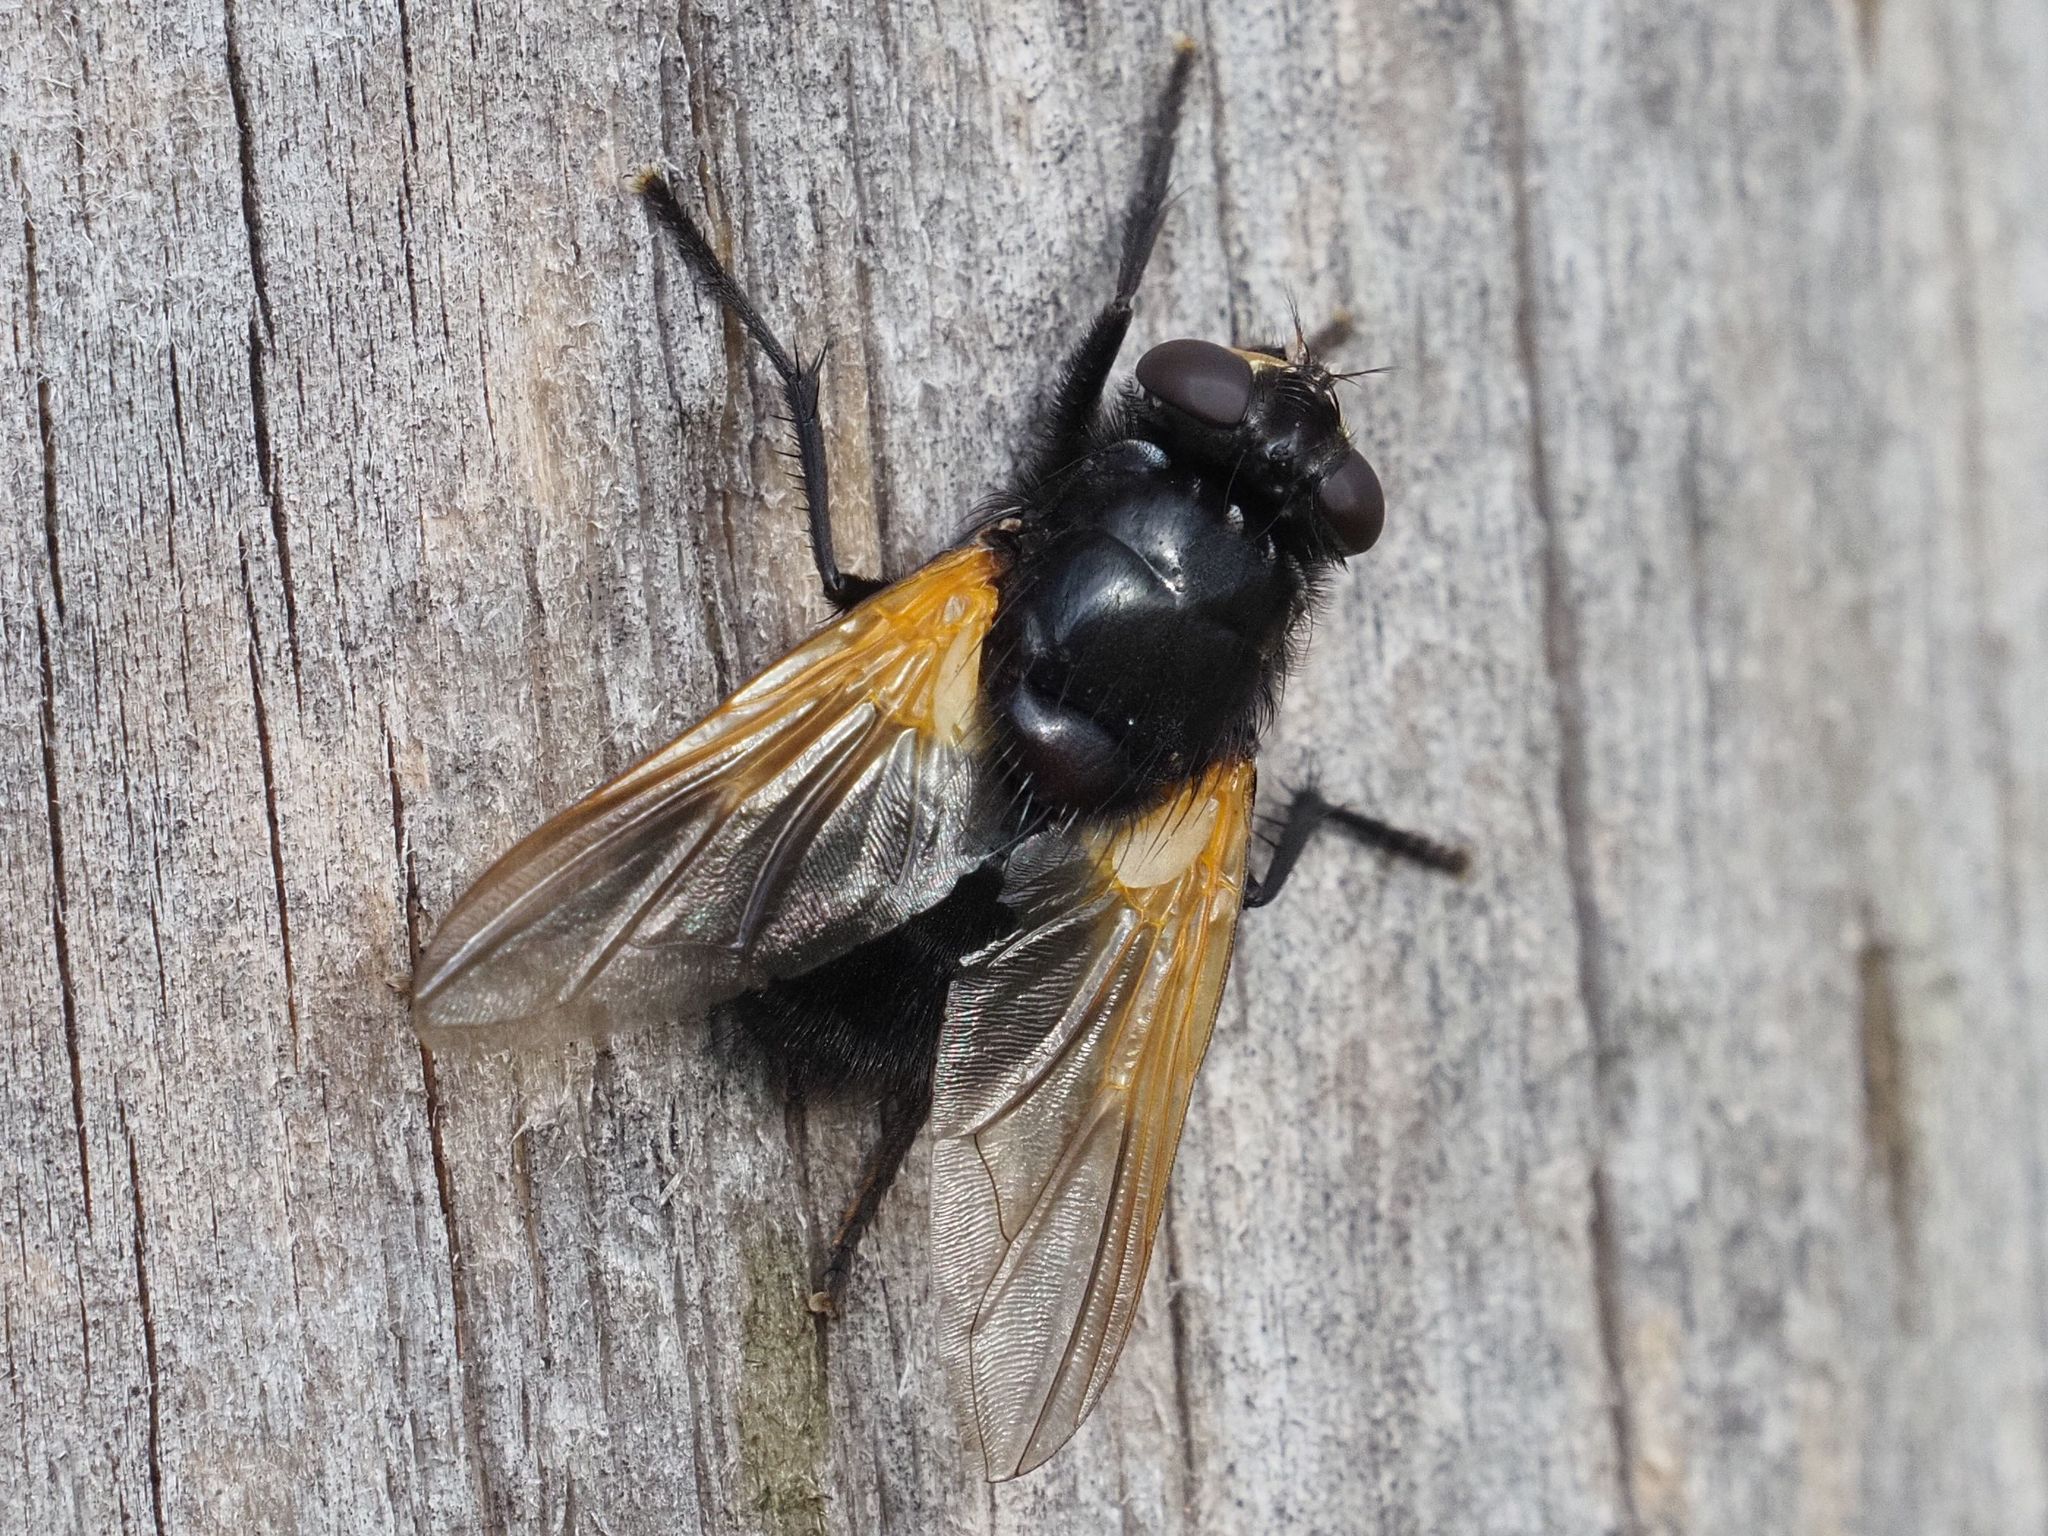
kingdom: Animalia
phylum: Arthropoda
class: Insecta
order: Diptera
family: Muscidae
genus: Mesembrina
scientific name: Mesembrina meridiana
